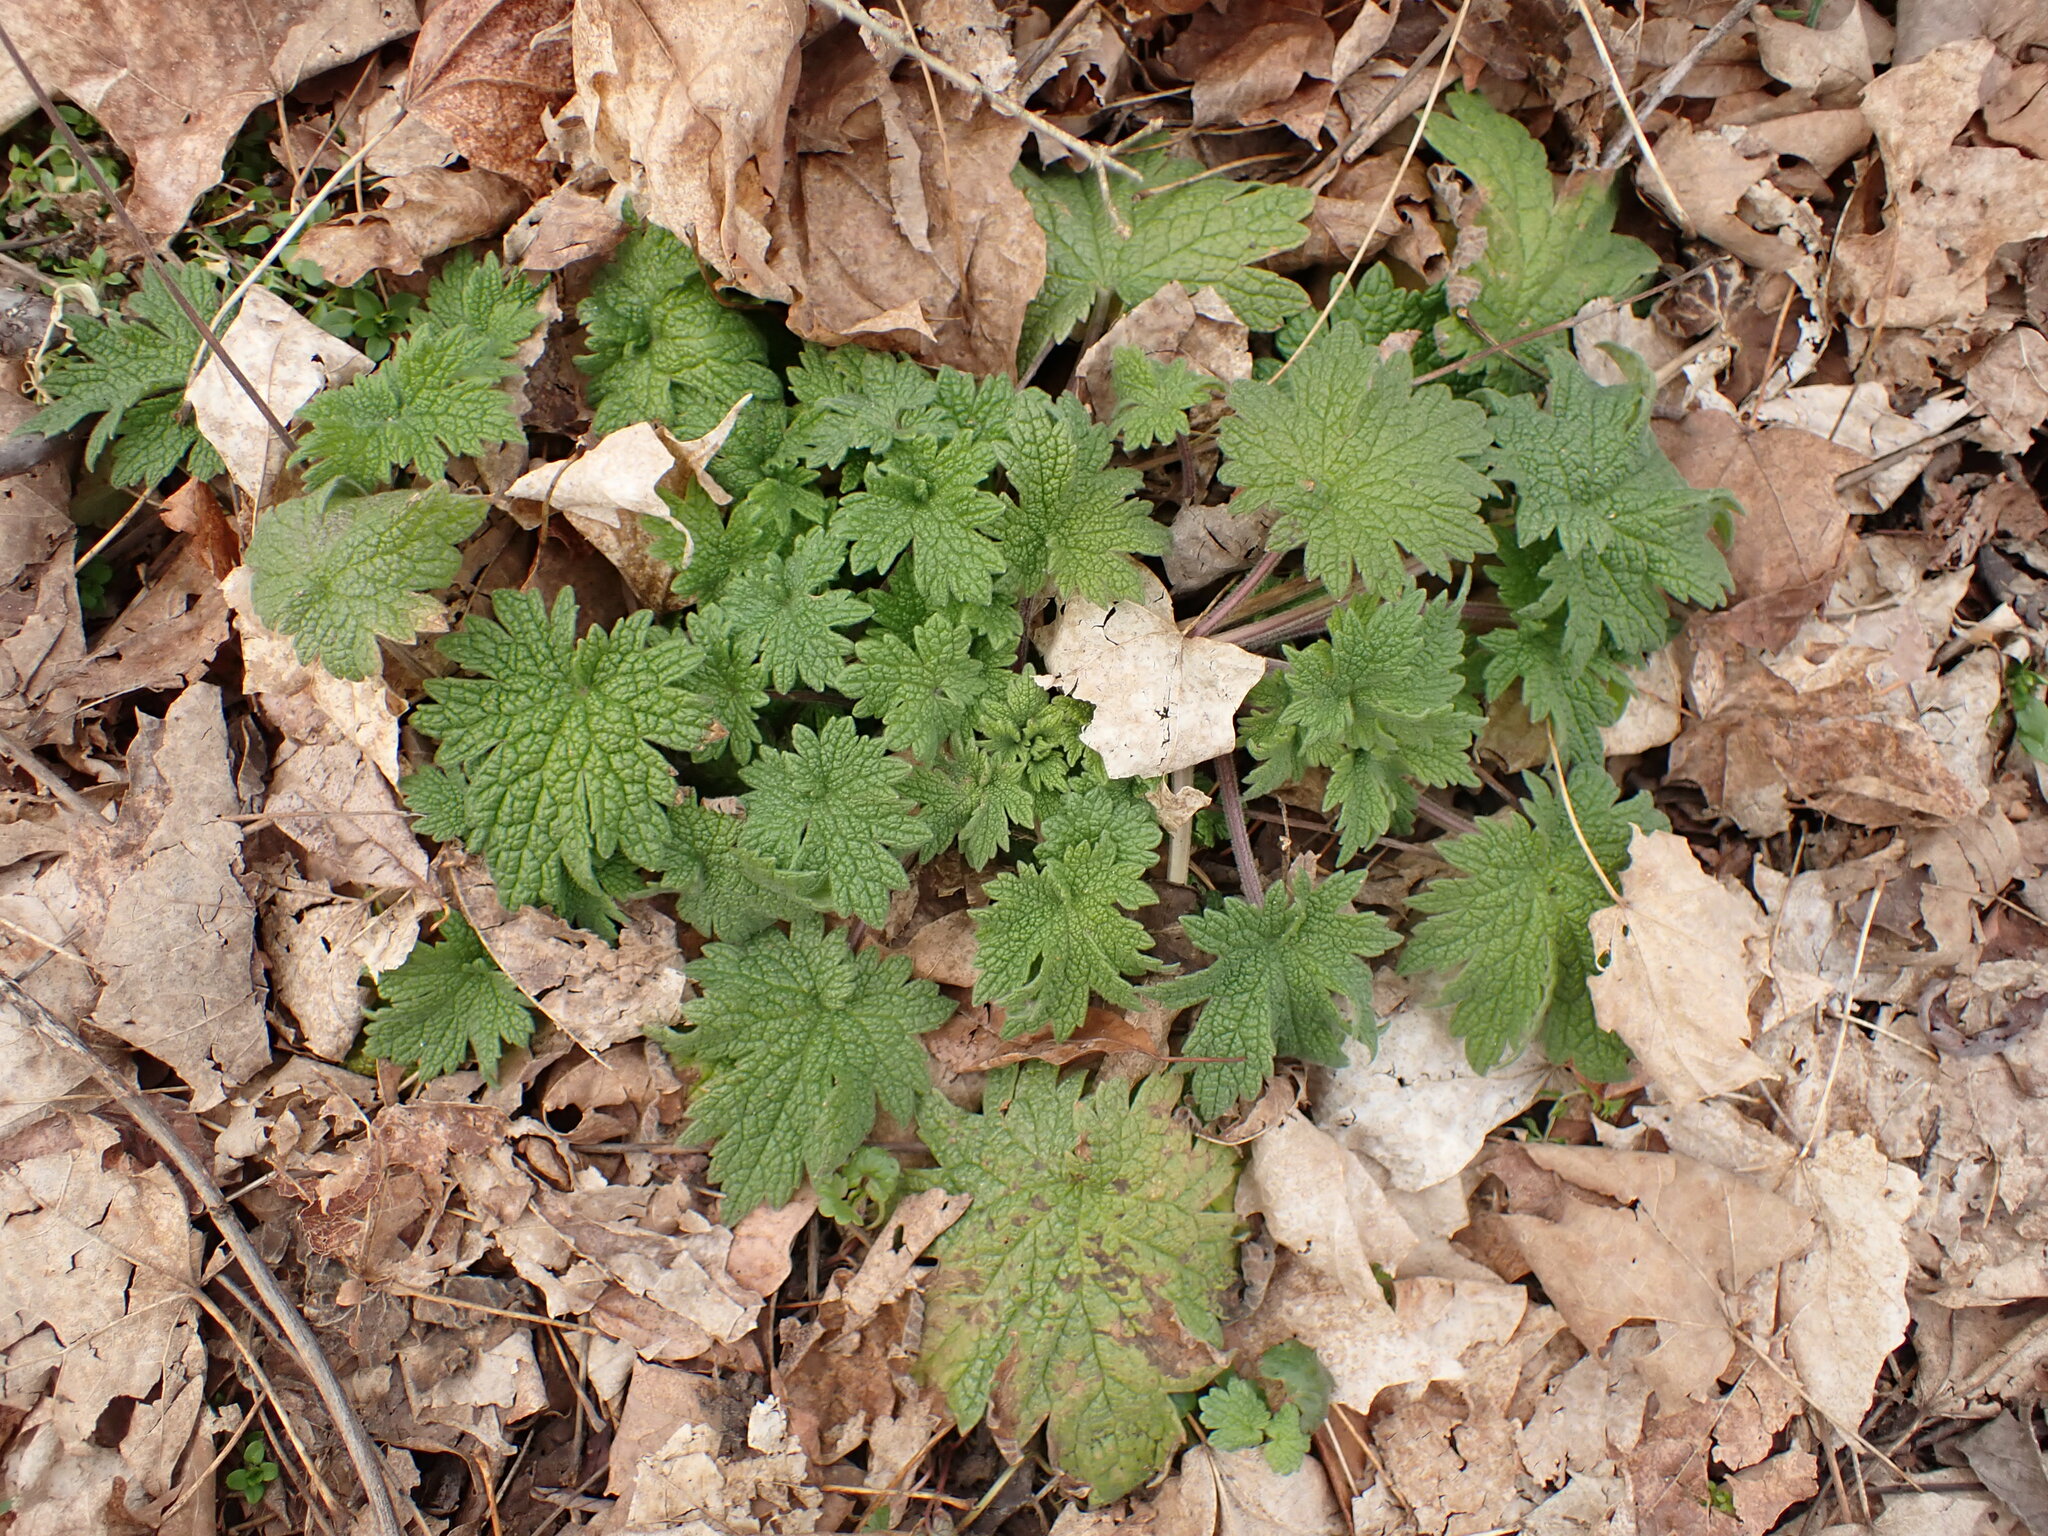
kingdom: Plantae
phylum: Tracheophyta
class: Magnoliopsida
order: Lamiales
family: Lamiaceae
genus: Leonurus
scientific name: Leonurus cardiaca
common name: Motherwort
